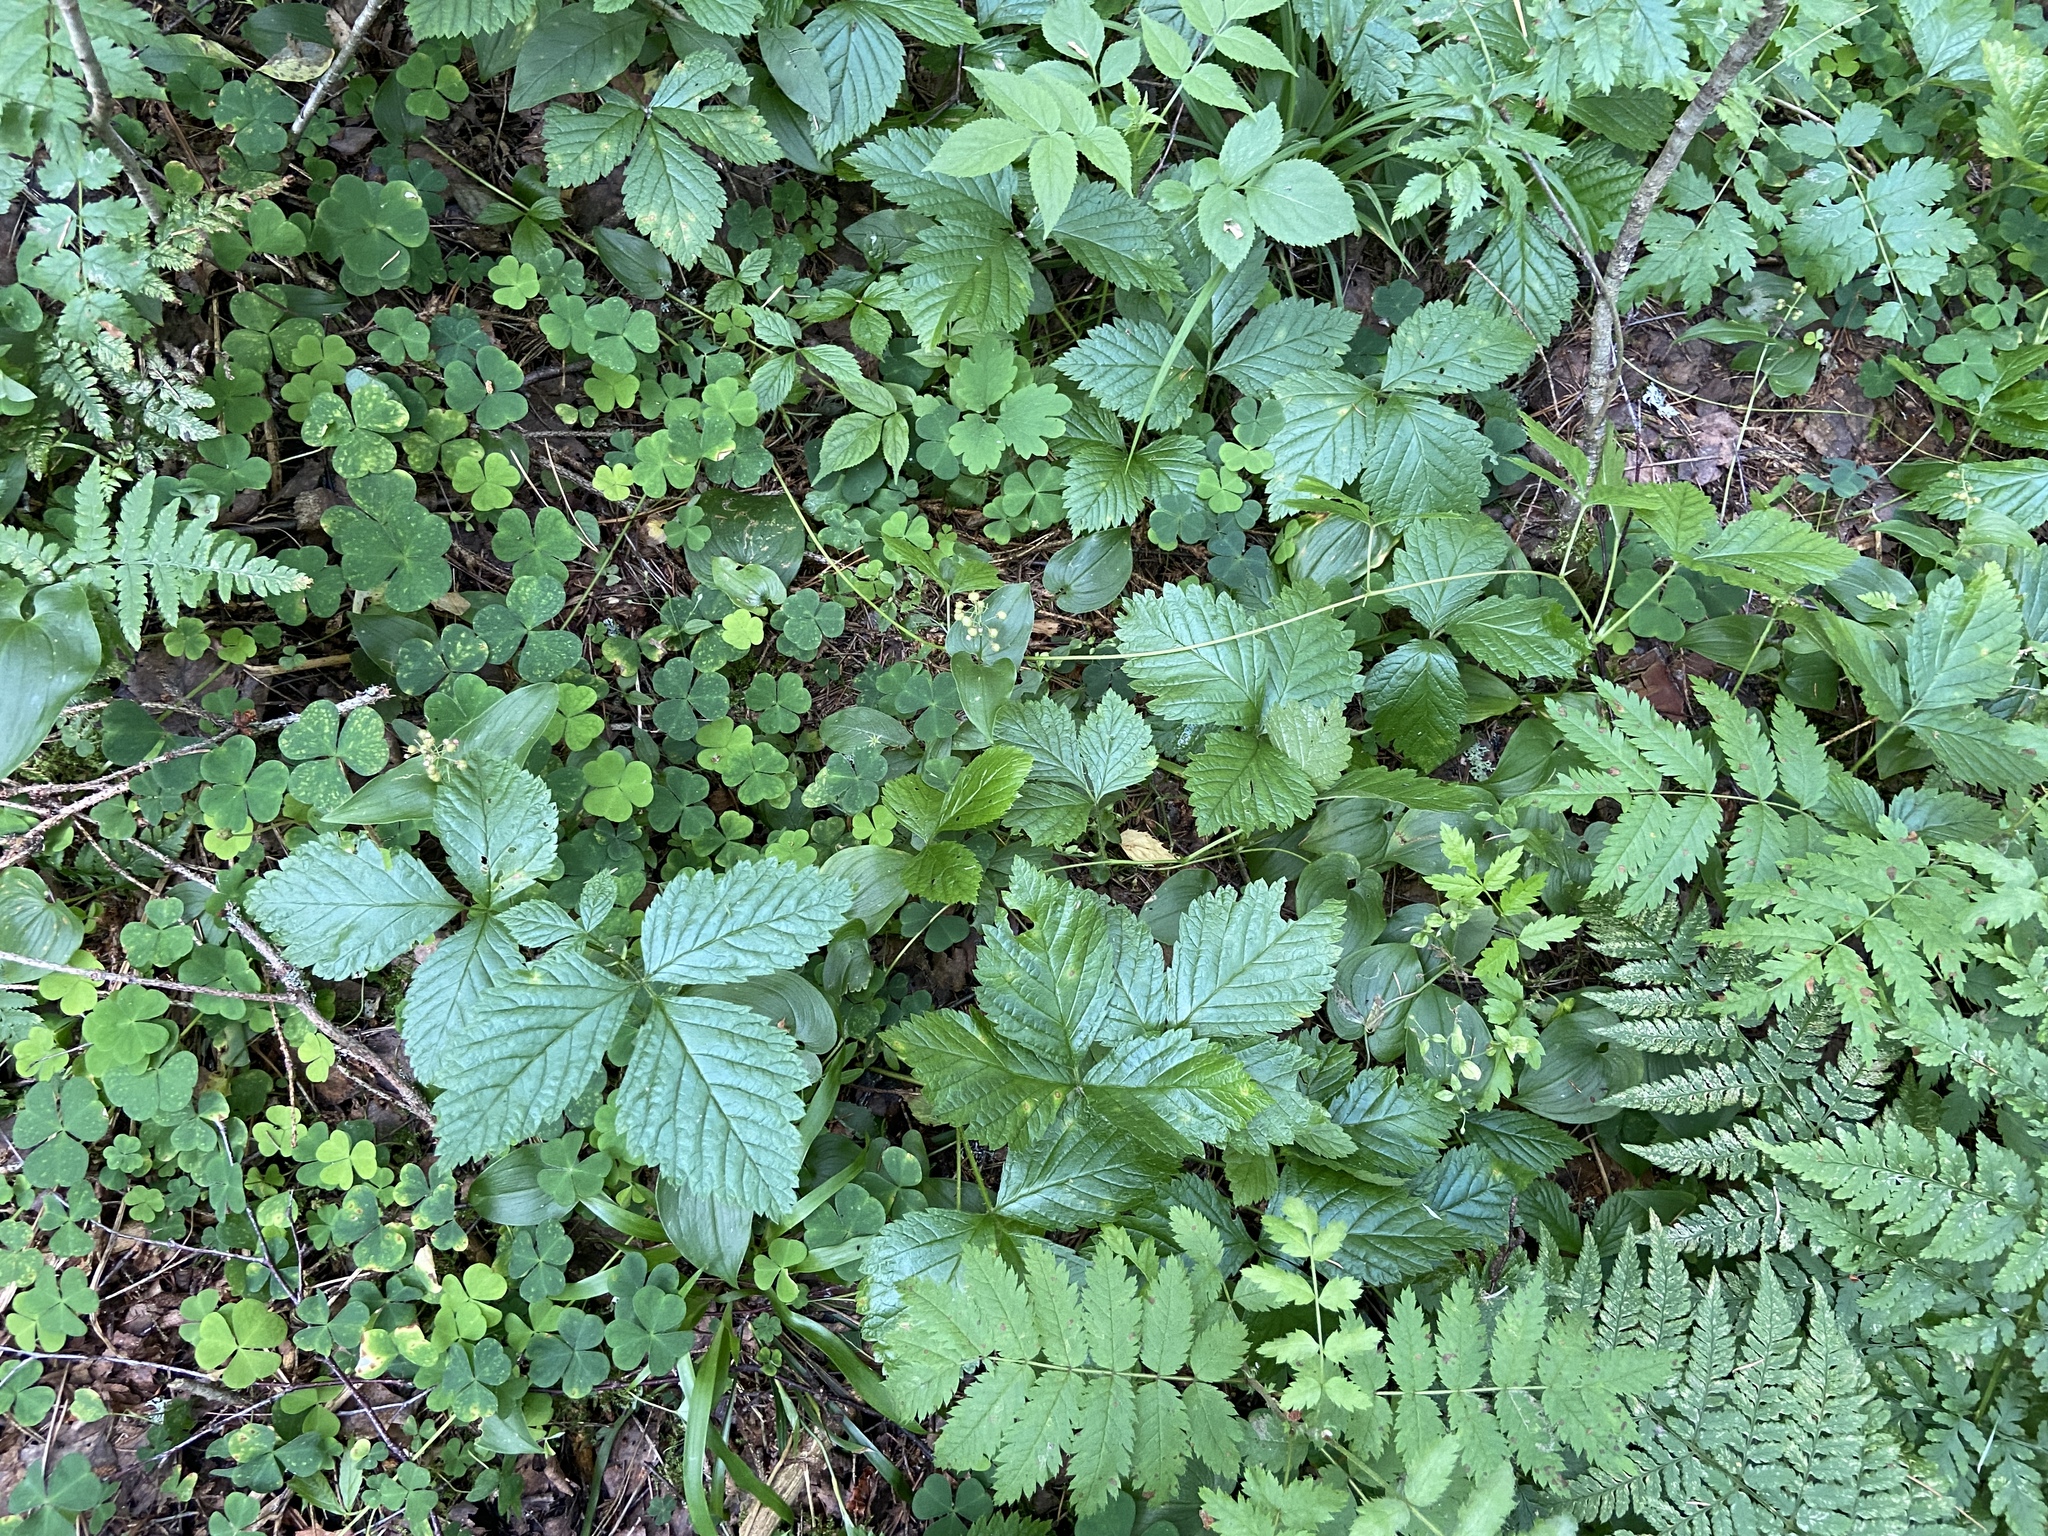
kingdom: Plantae
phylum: Tracheophyta
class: Magnoliopsida
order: Rosales
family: Rosaceae
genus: Rubus
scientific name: Rubus saxatilis
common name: Stone bramble
